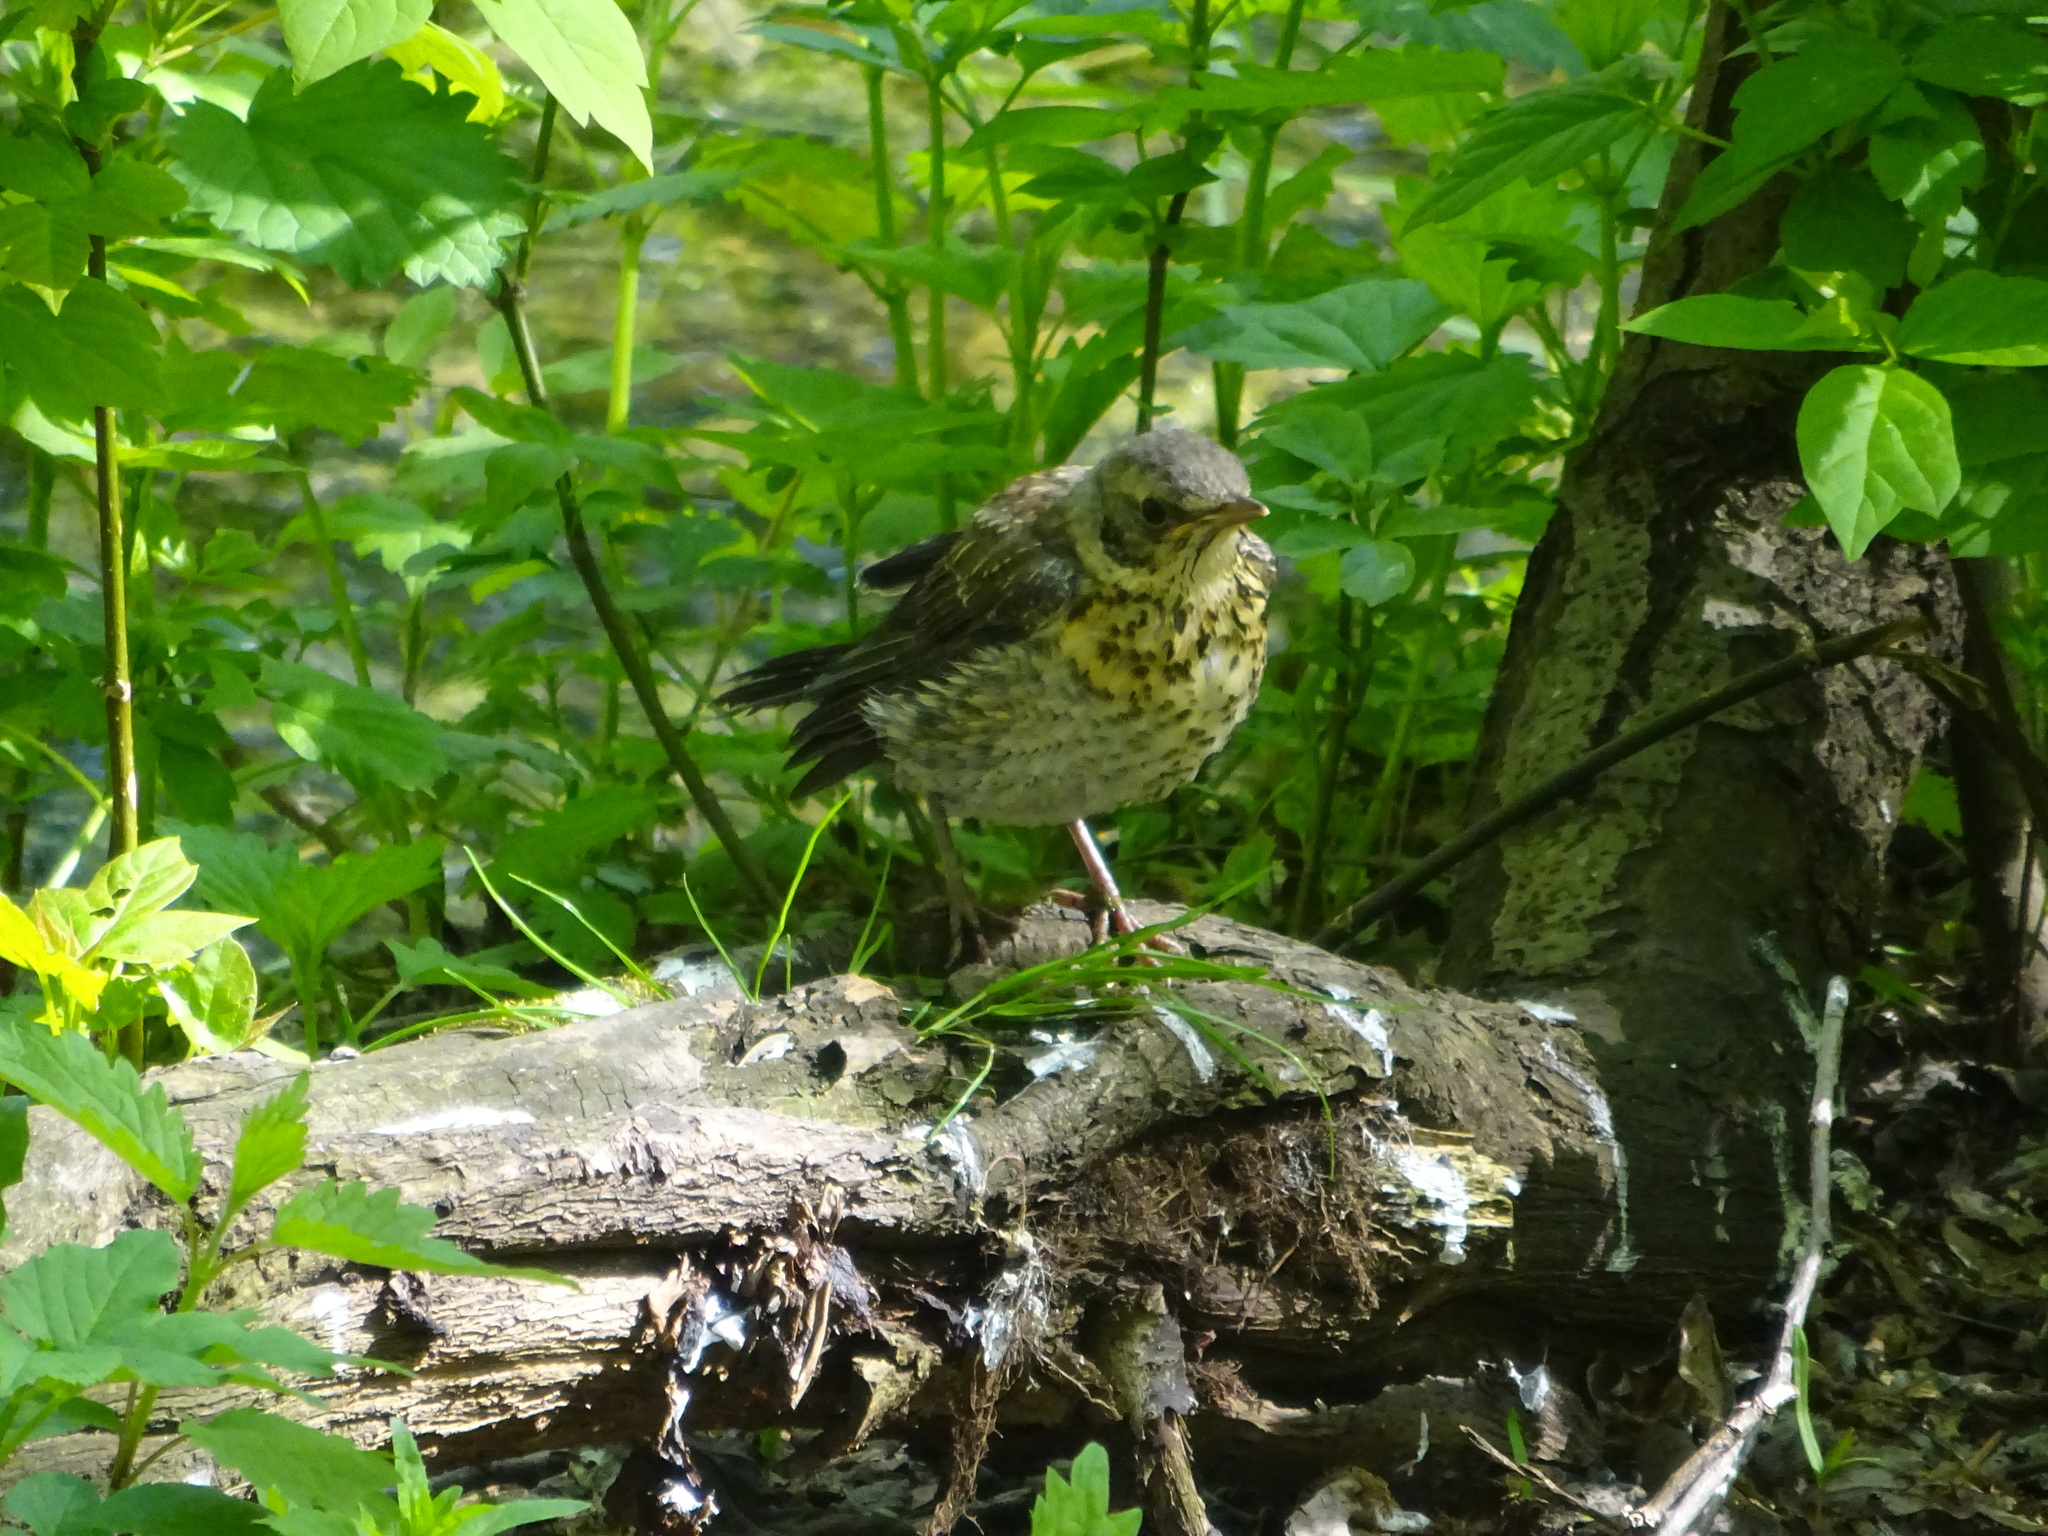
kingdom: Animalia
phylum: Chordata
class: Aves
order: Passeriformes
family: Turdidae
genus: Turdus
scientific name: Turdus pilaris
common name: Fieldfare
